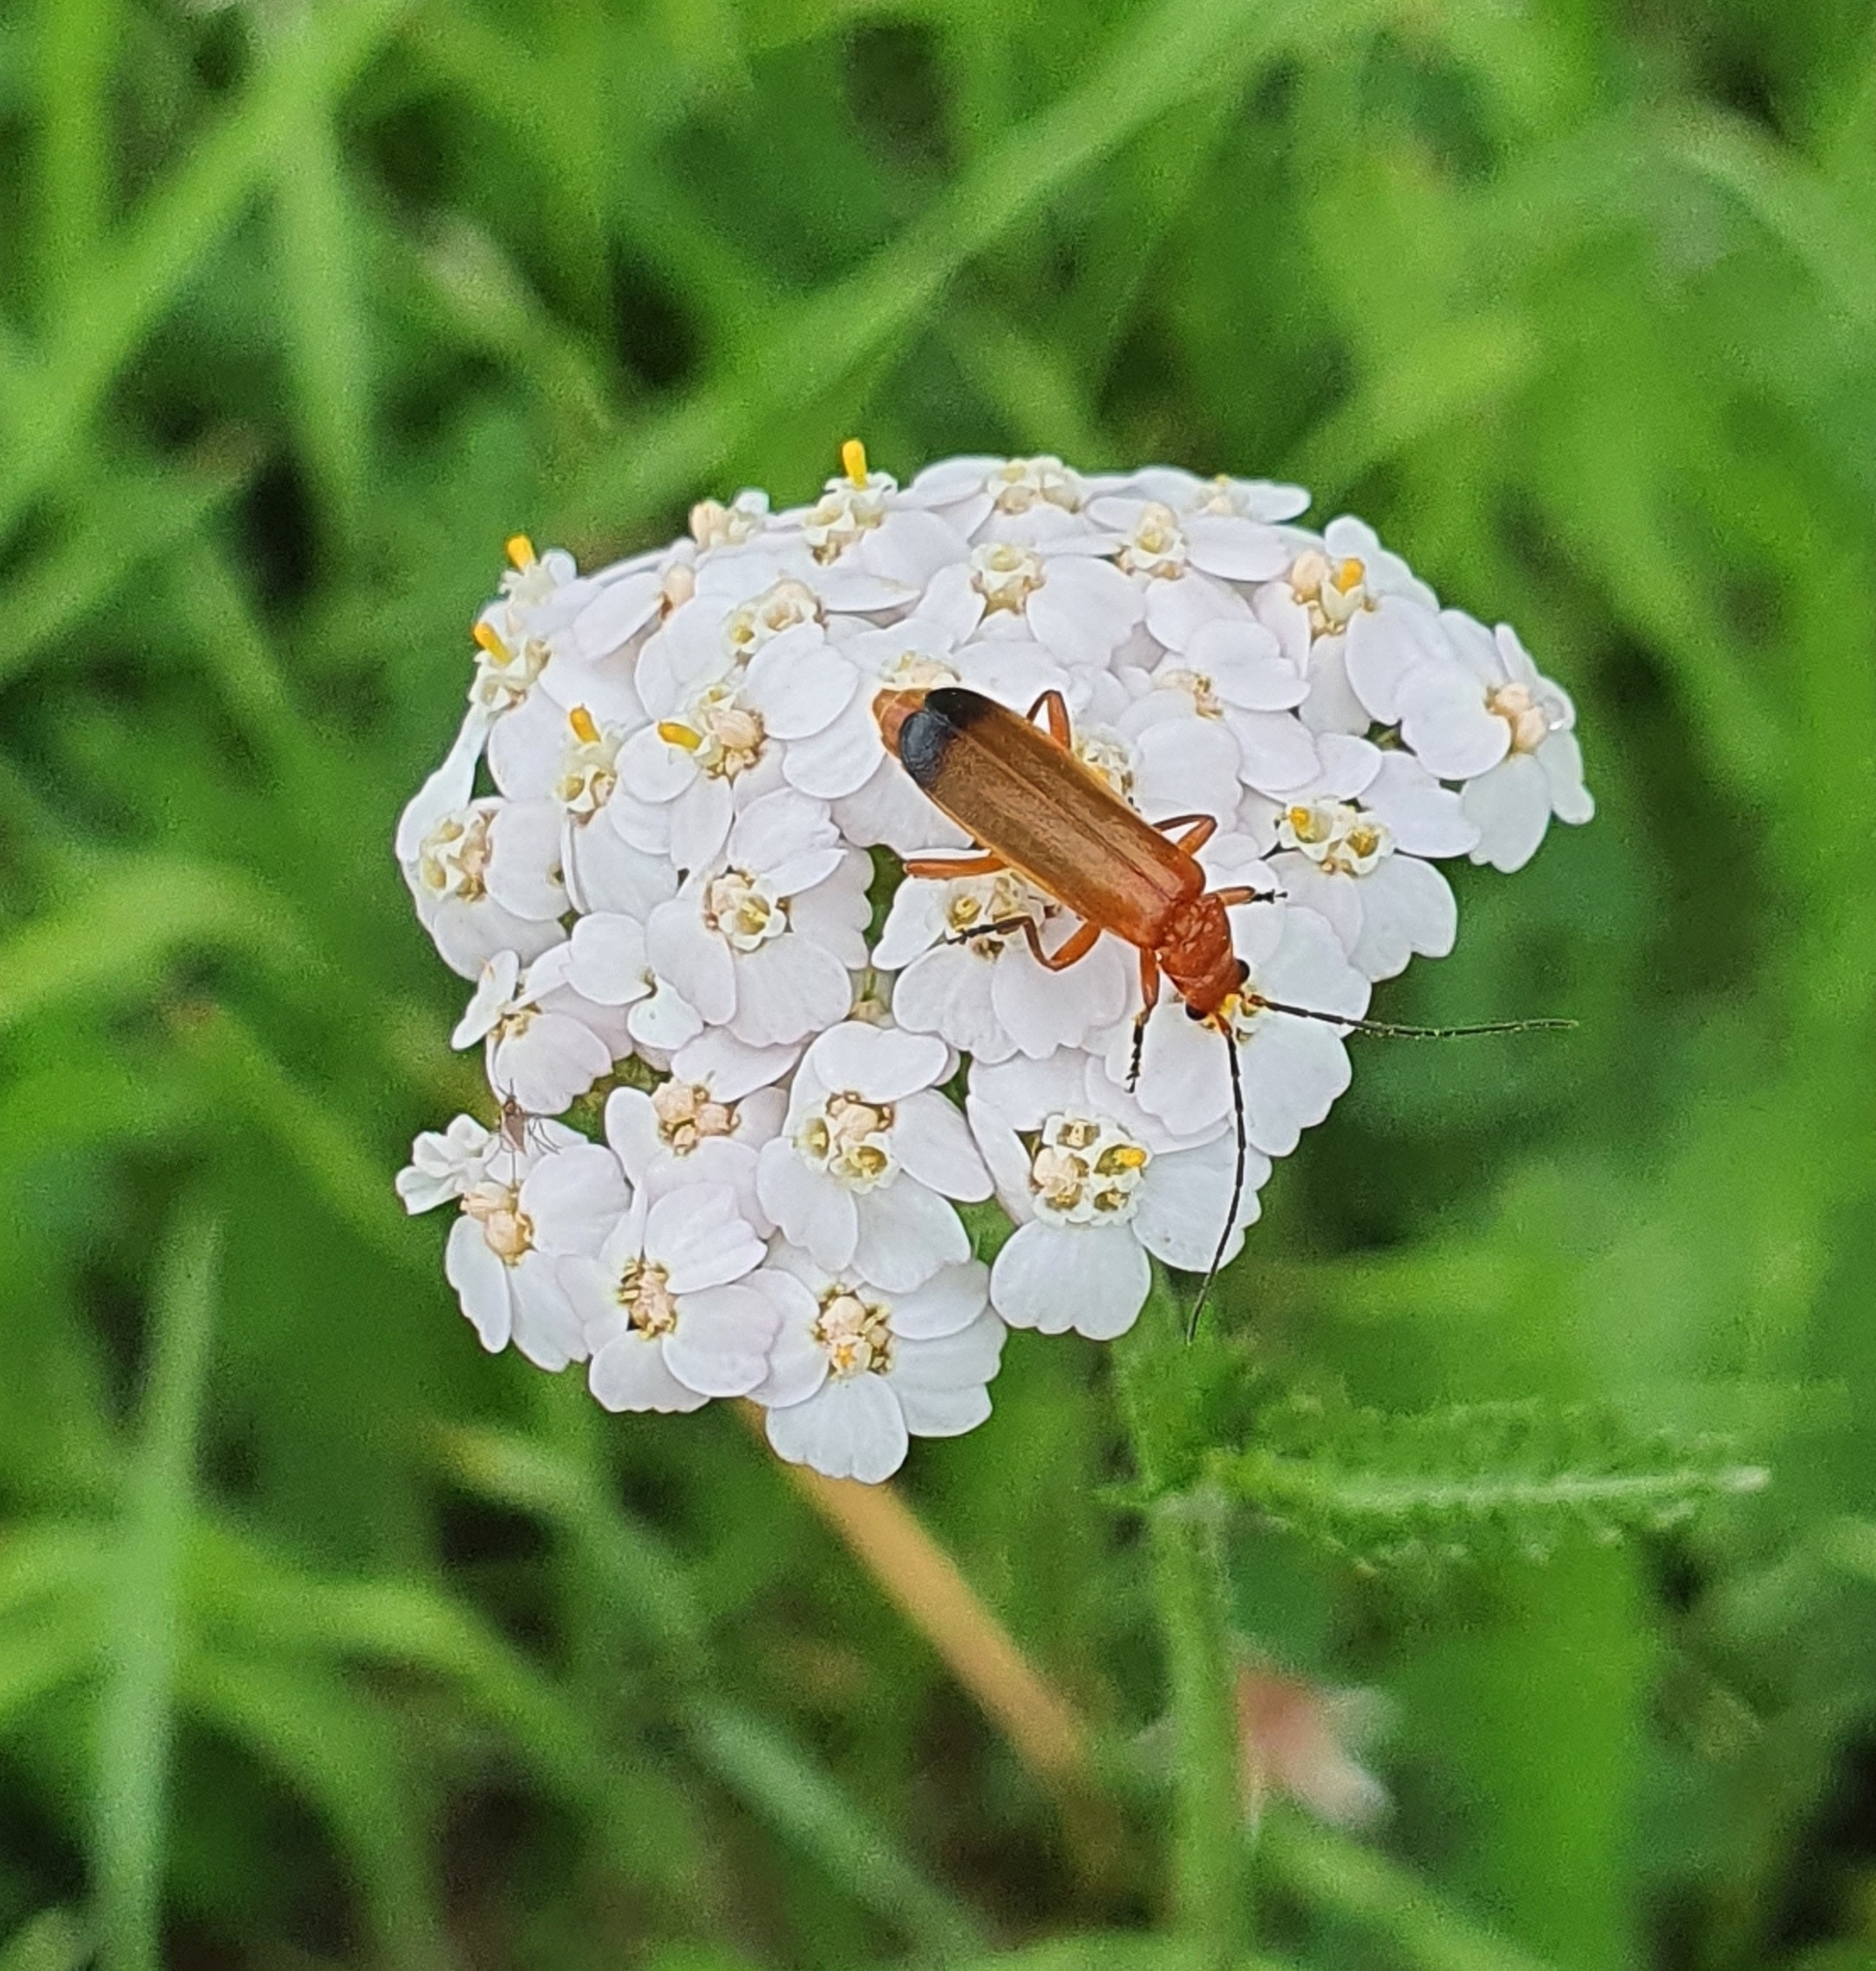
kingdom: Animalia
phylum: Arthropoda
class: Insecta
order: Coleoptera
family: Cantharidae
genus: Rhagonycha
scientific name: Rhagonycha fulva
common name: Common red soldier beetle
